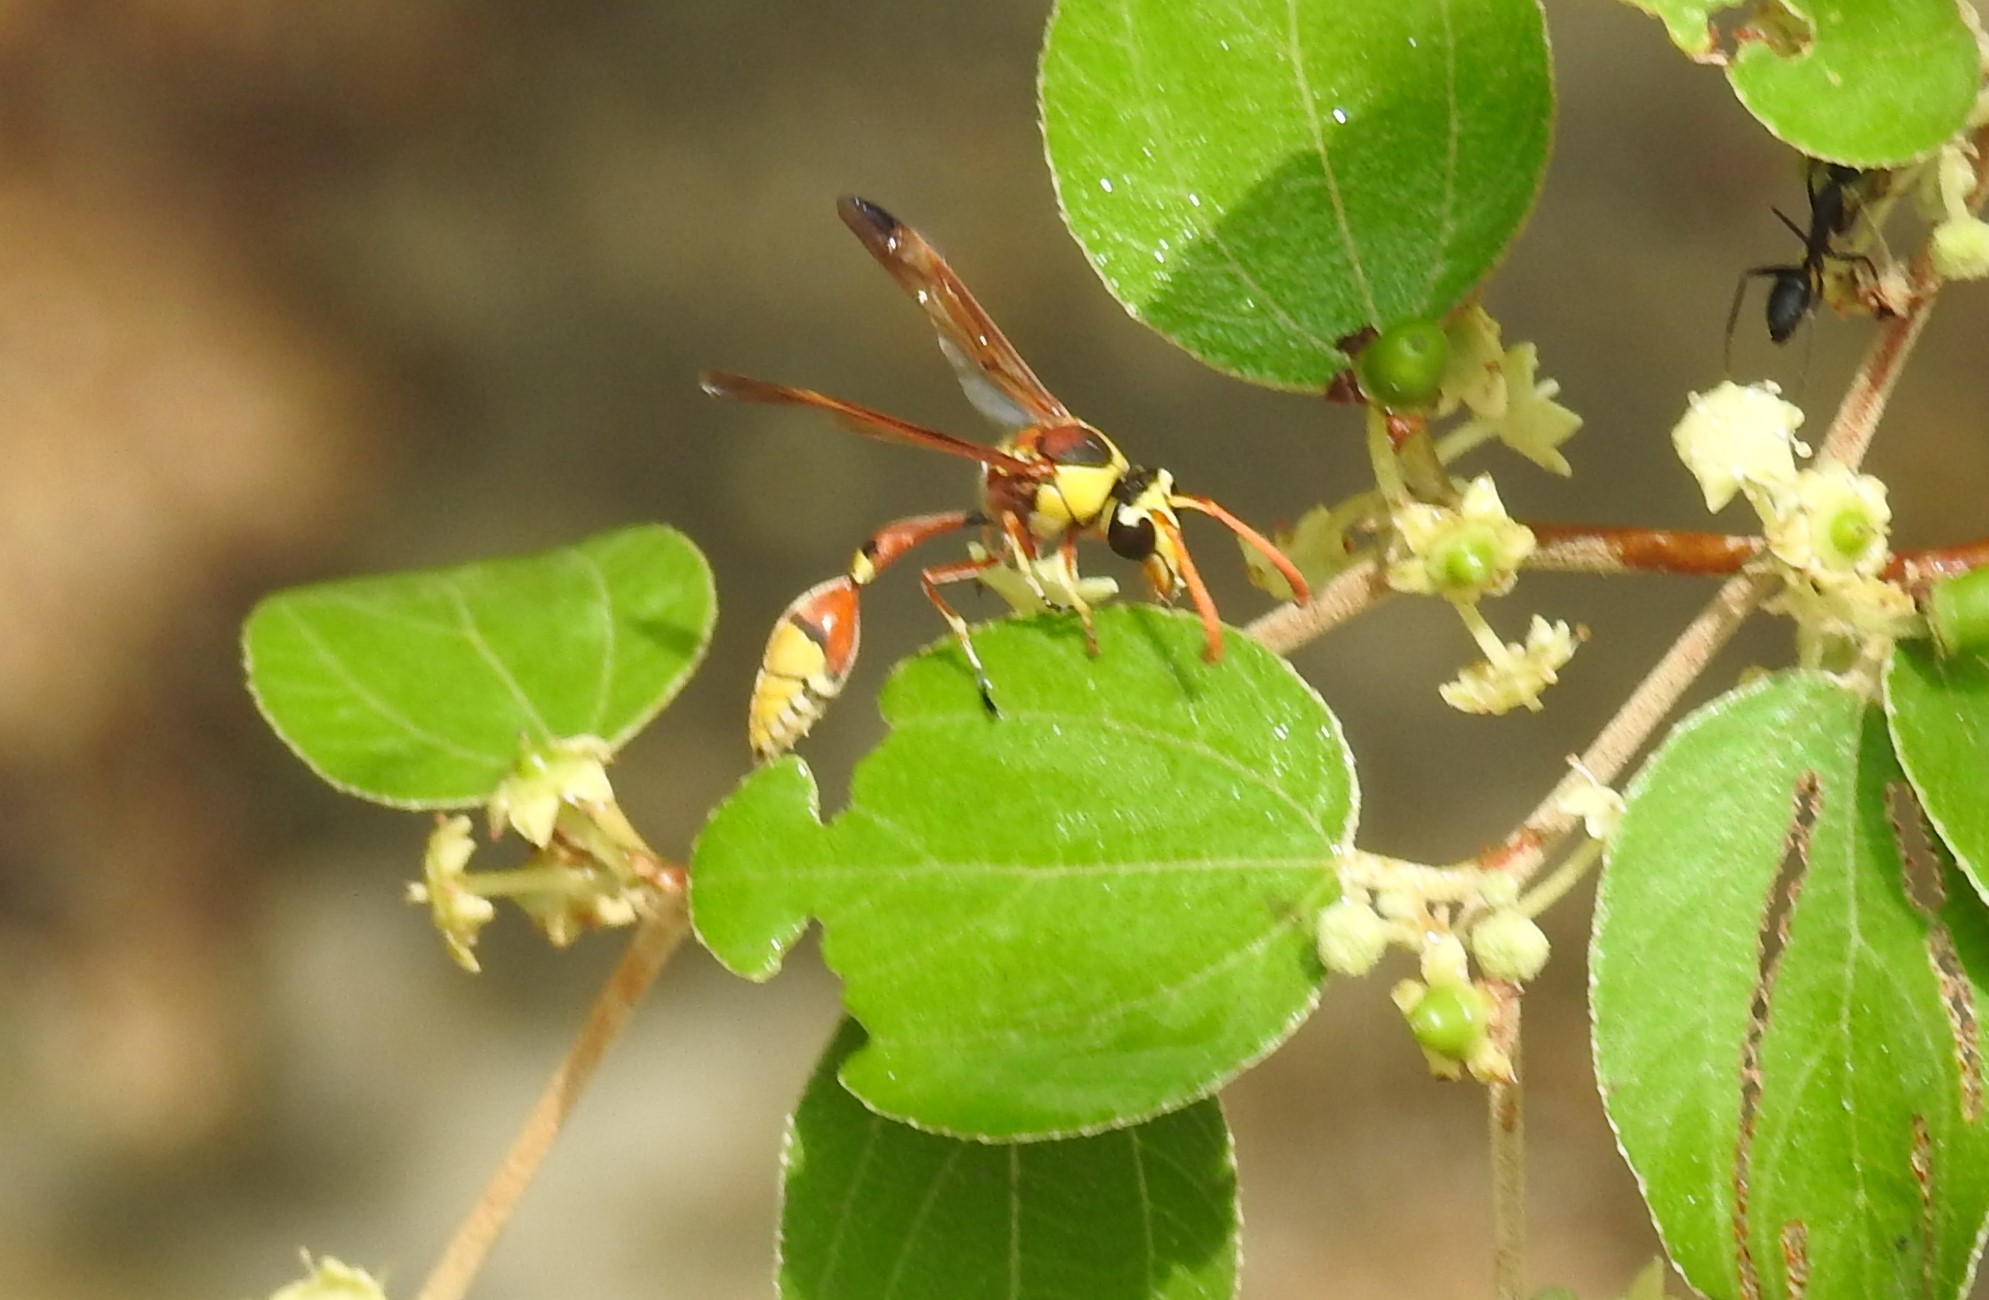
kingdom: Animalia
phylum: Arthropoda
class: Insecta
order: Hymenoptera
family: Eumenidae
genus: Delta
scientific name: Delta esuriens
